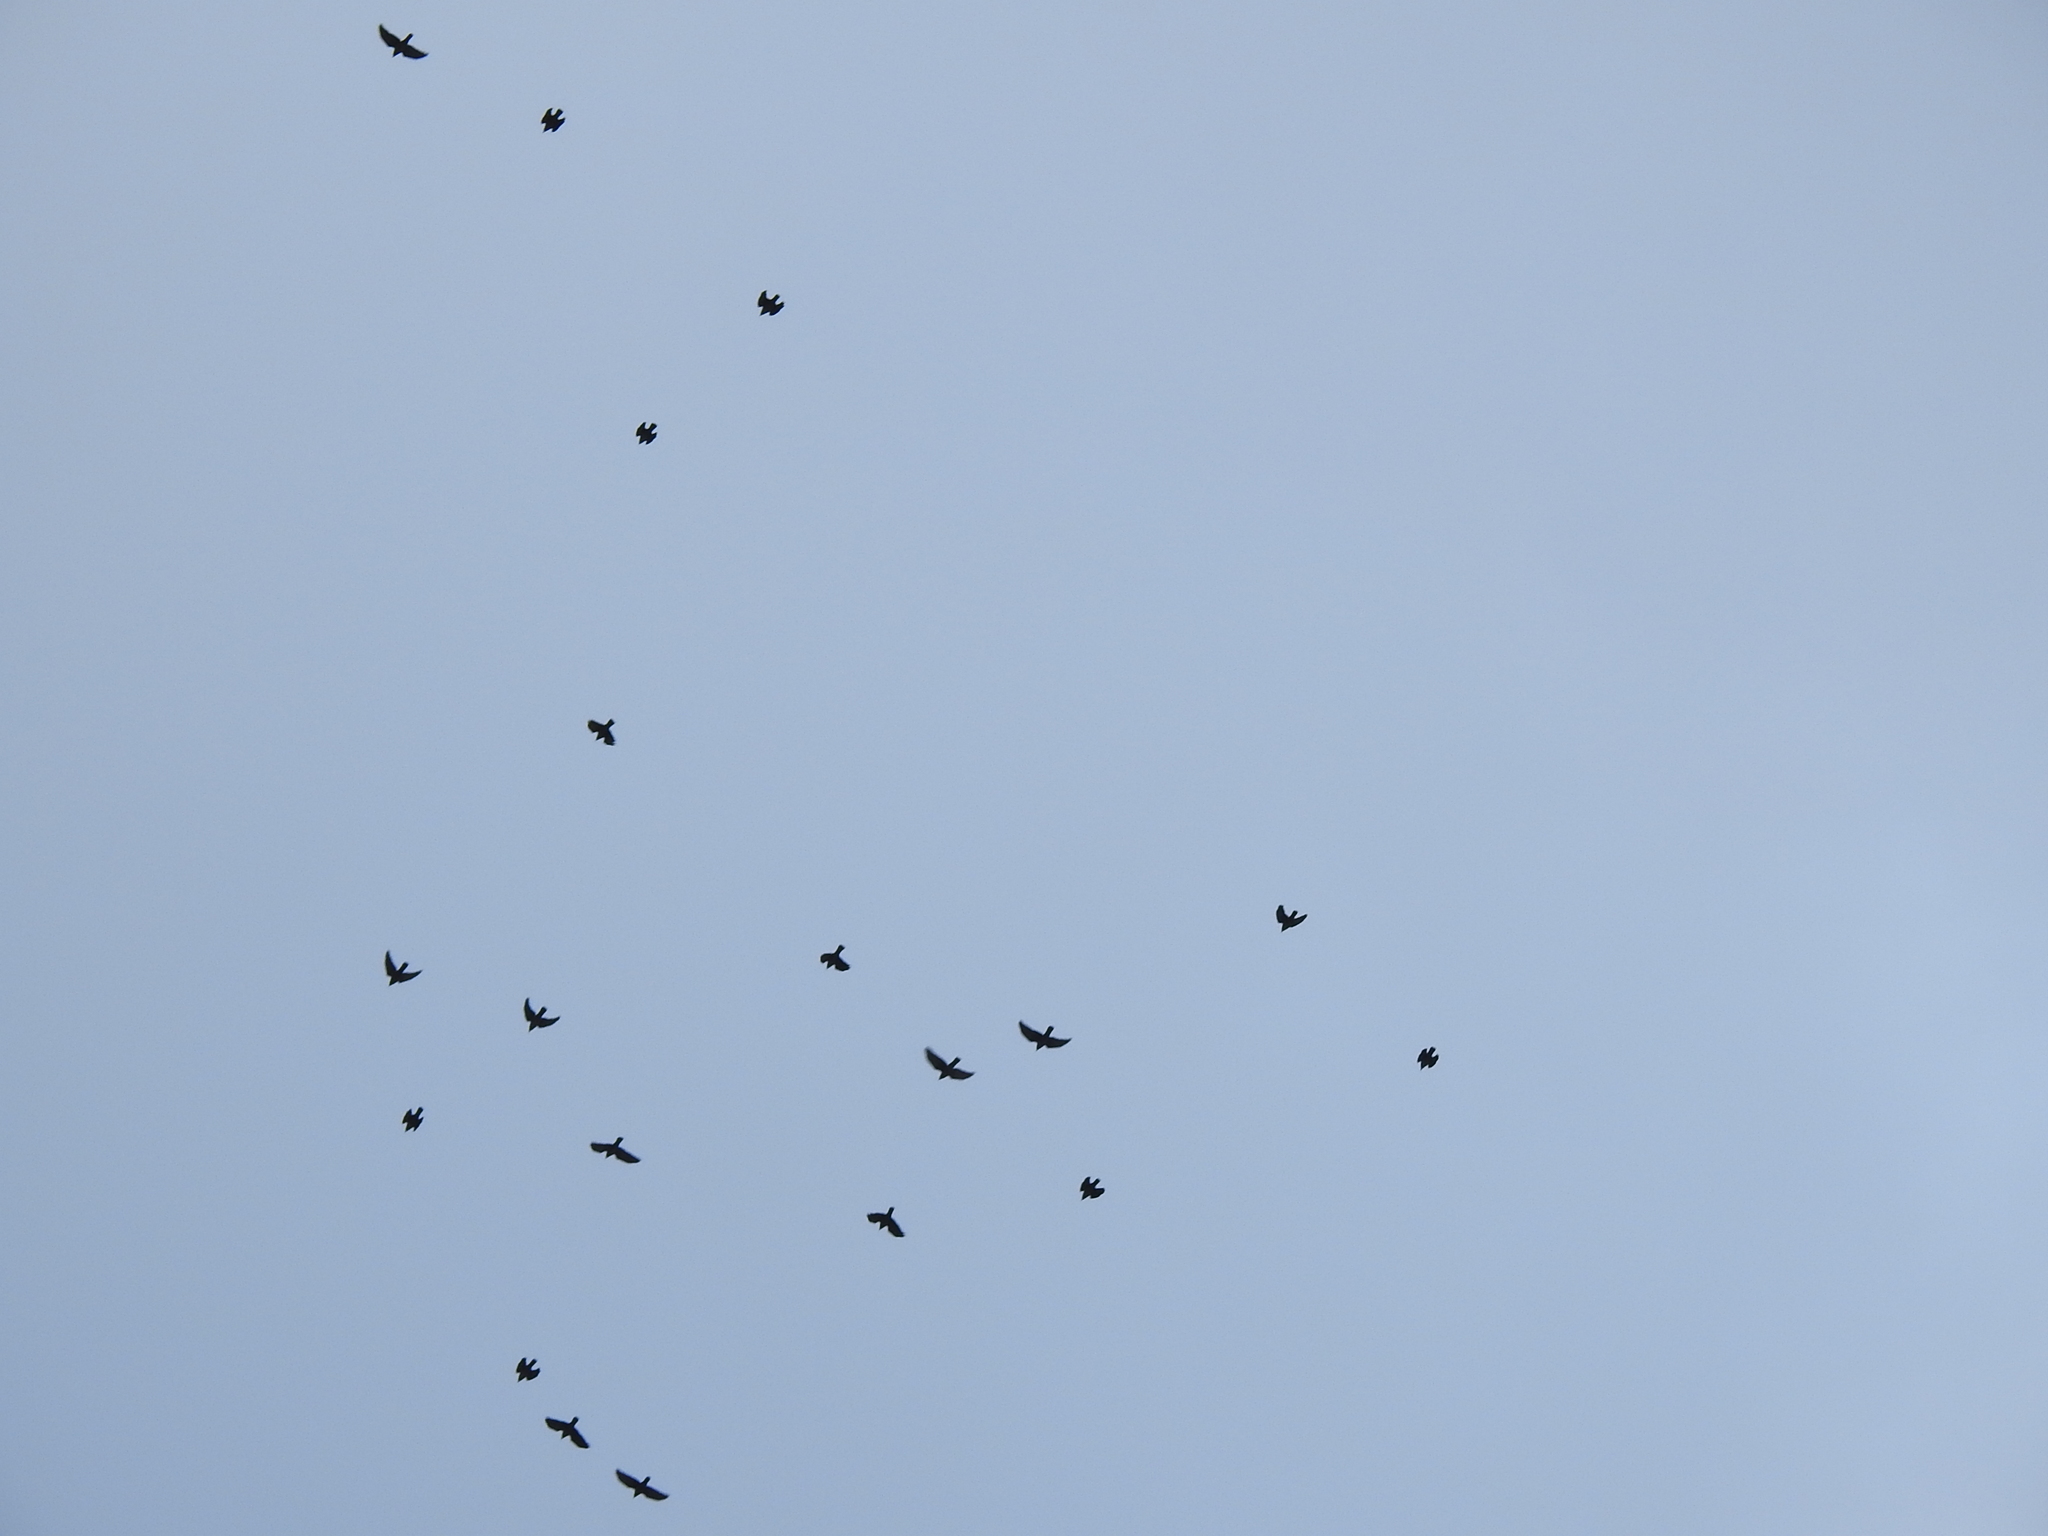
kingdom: Animalia
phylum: Chordata
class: Aves
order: Passeriformes
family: Corvidae
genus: Coloeus
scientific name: Coloeus monedula
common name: Western jackdaw
